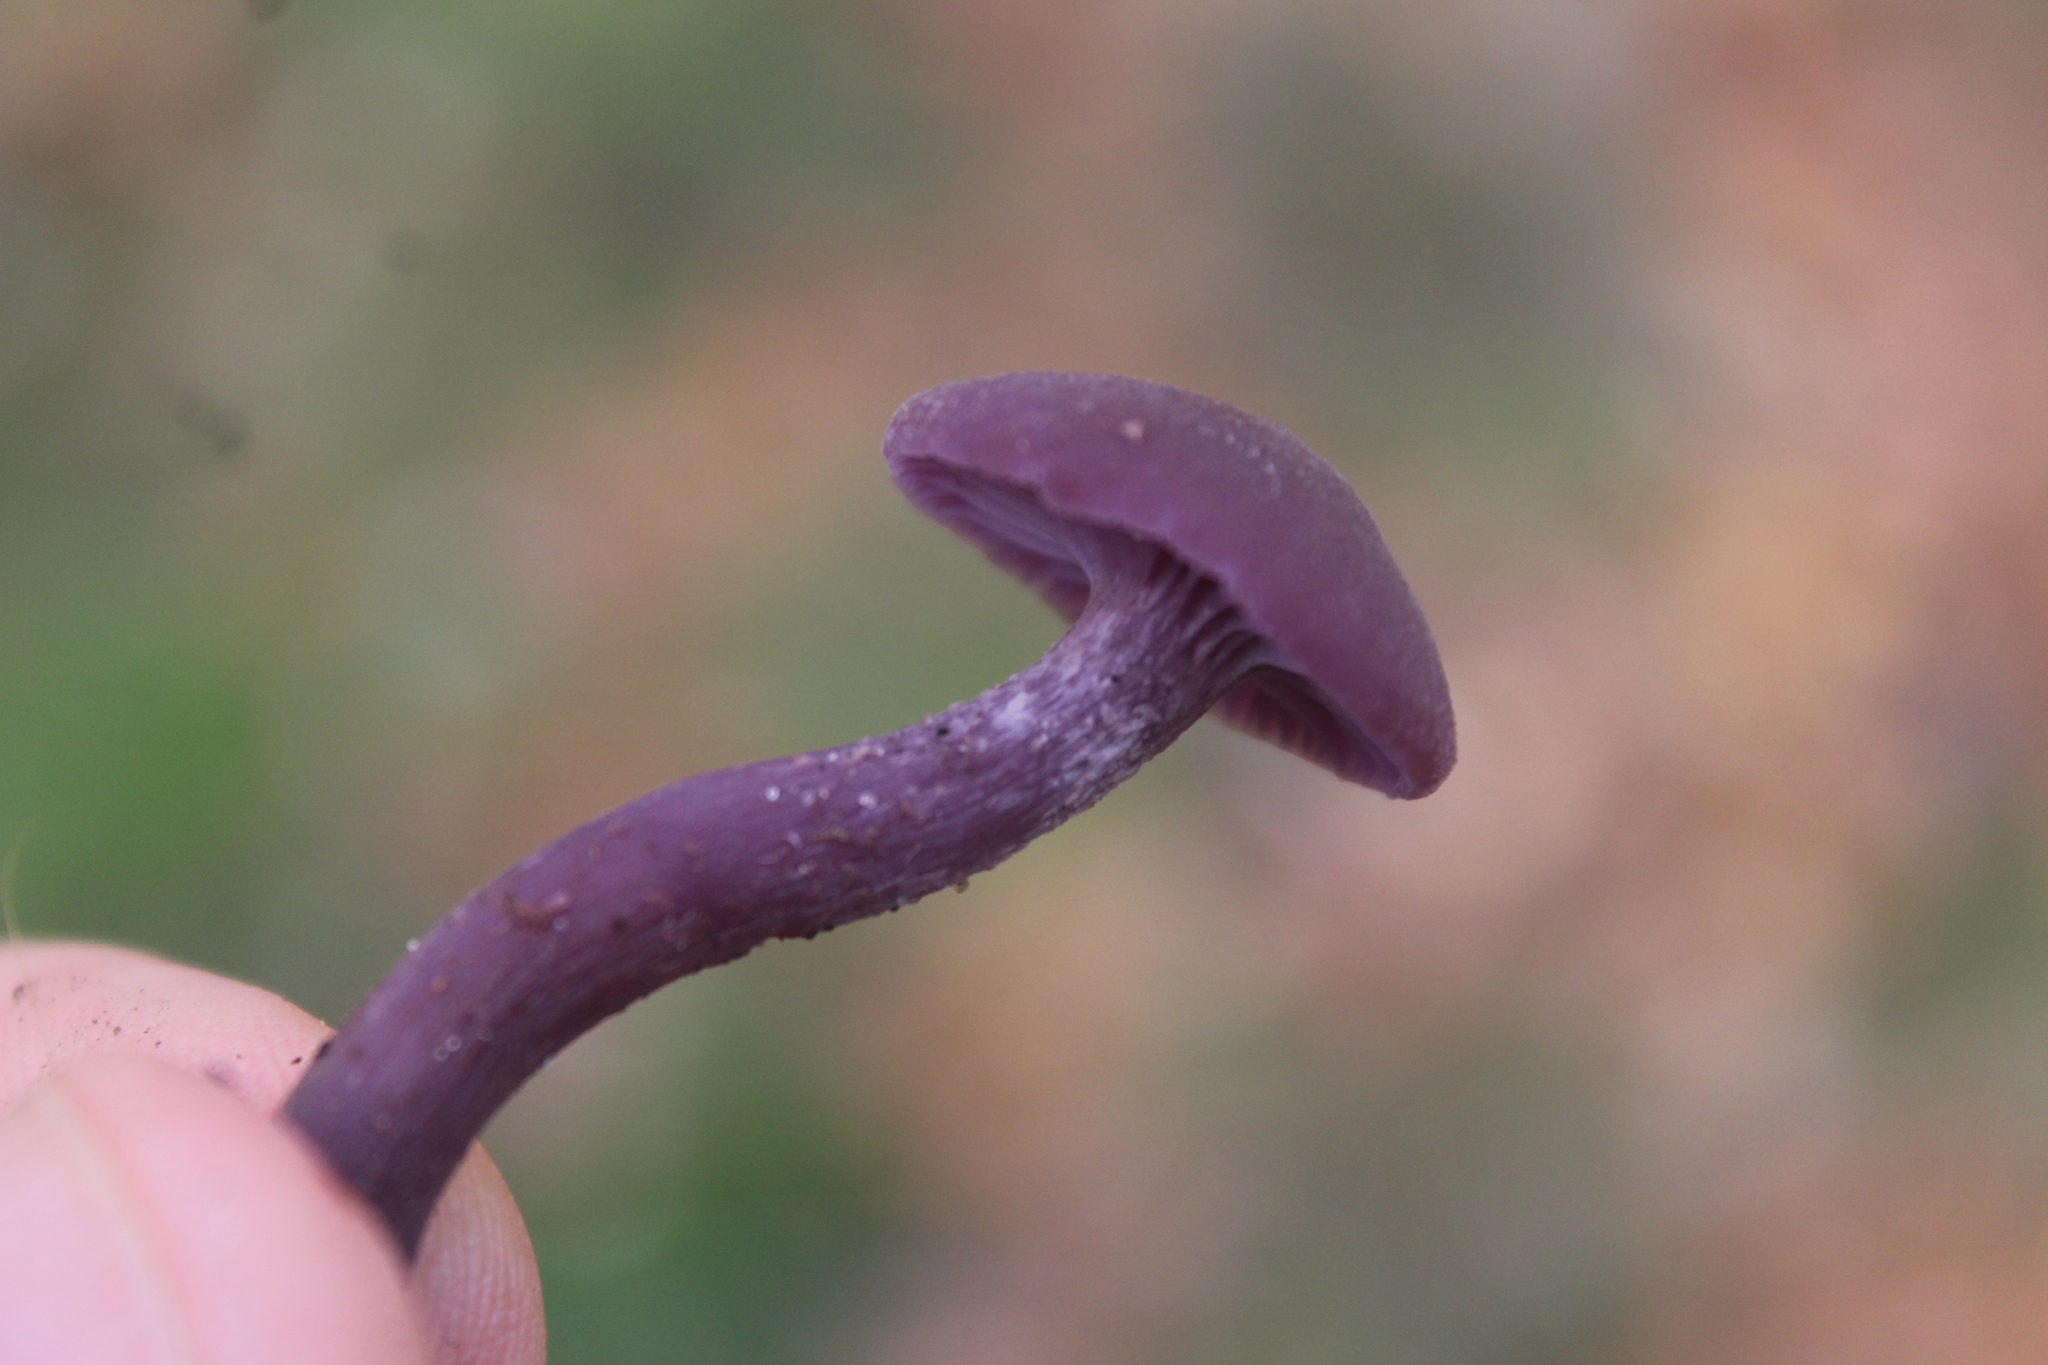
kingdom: Fungi
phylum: Basidiomycota
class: Agaricomycetes
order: Agaricales
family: Hydnangiaceae
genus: Laccaria
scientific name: Laccaria amethystina
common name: Amethyst deceiver
